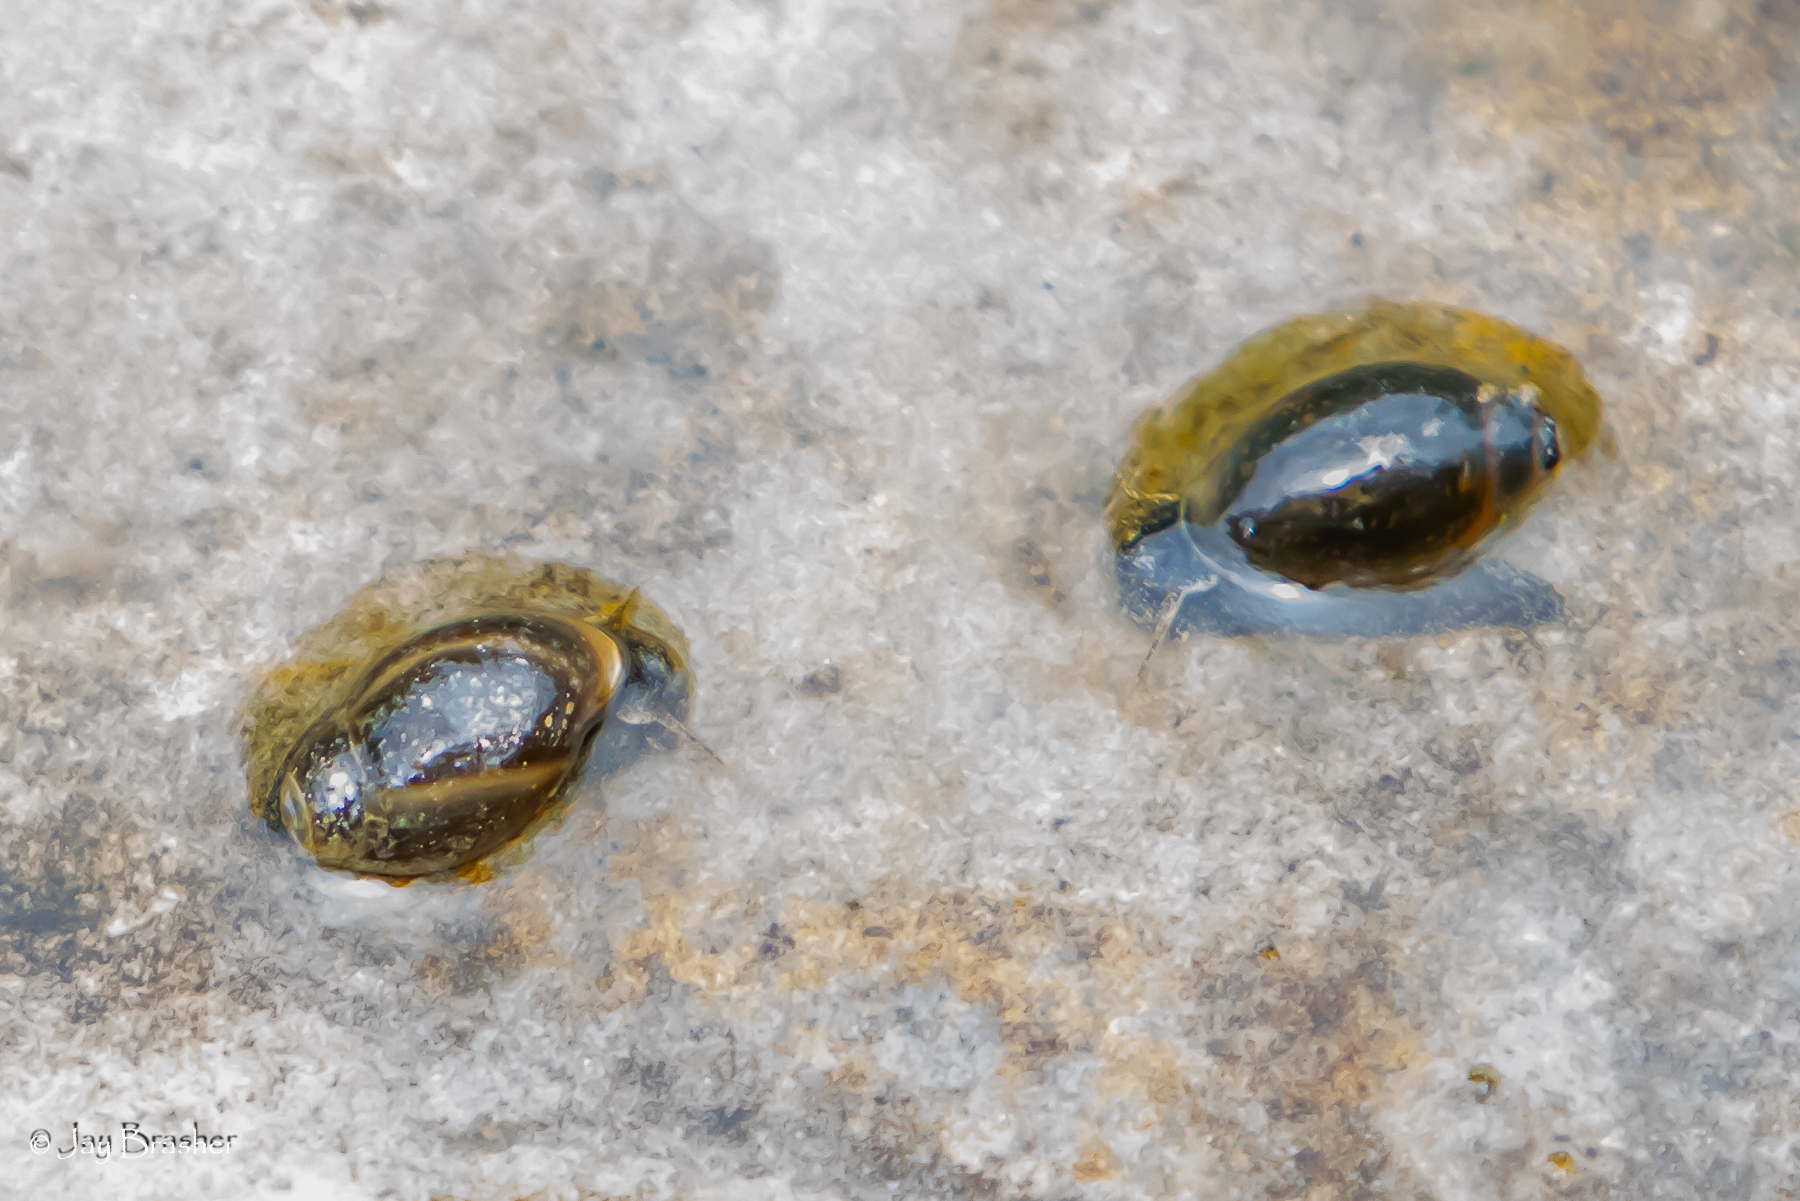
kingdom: Animalia
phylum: Mollusca
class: Gastropoda
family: Physidae
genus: Physella
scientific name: Physella acuta
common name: European physa
